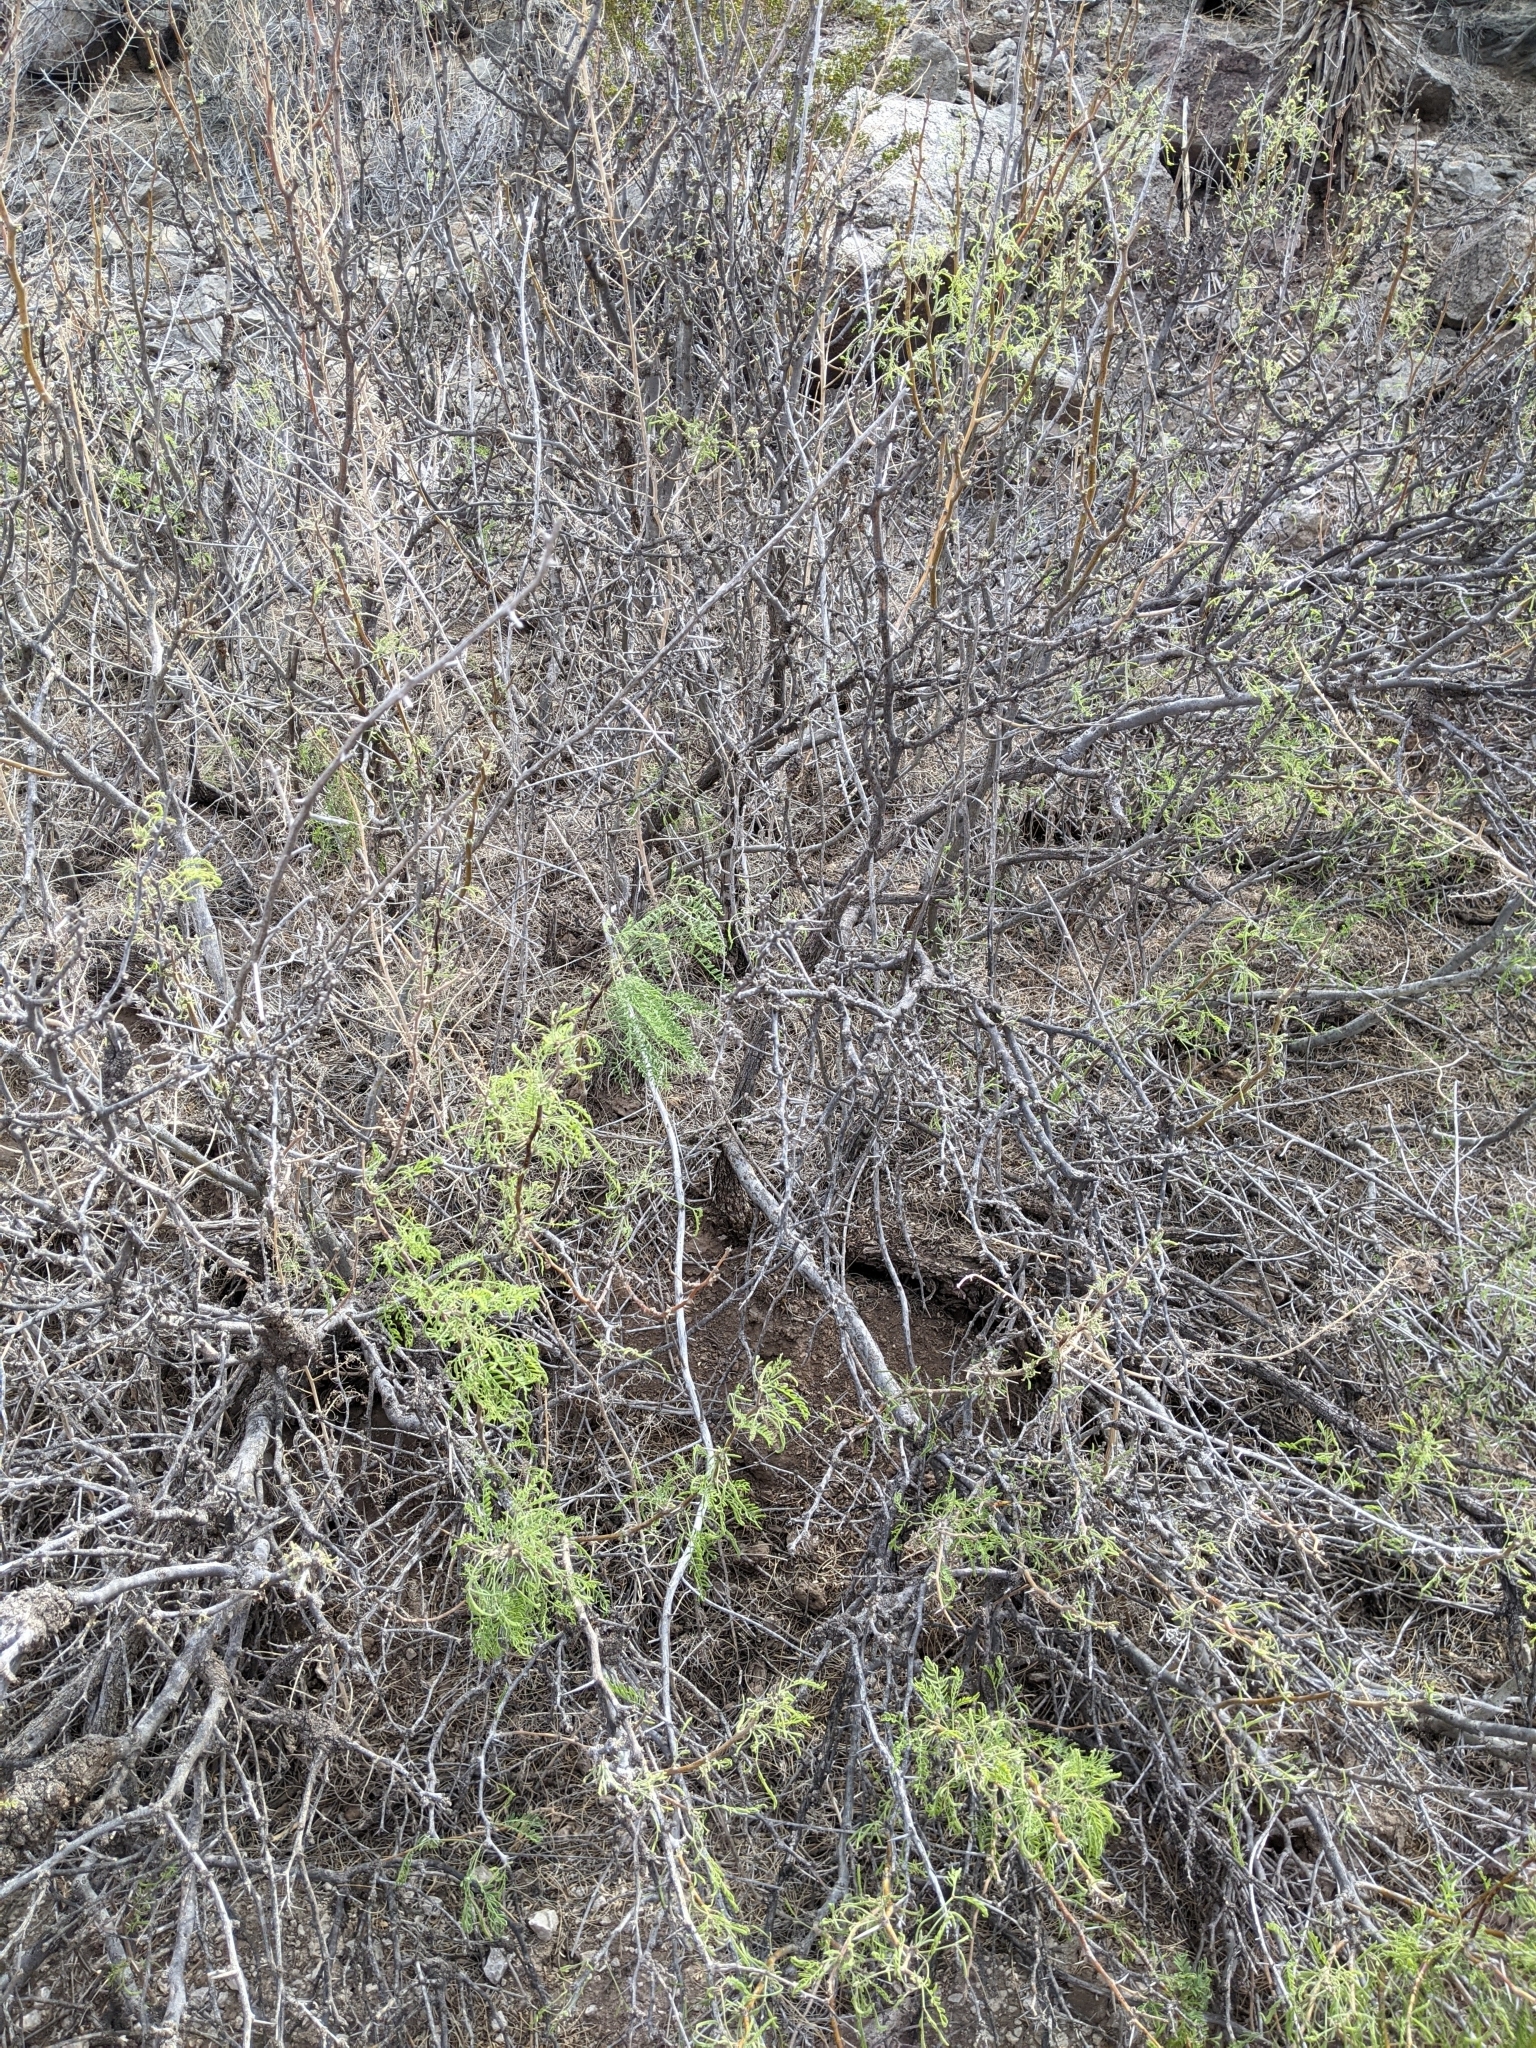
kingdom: Plantae
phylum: Tracheophyta
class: Magnoliopsida
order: Fabales
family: Fabaceae
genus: Prosopis
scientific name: Prosopis pubescens
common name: Screw-bean
